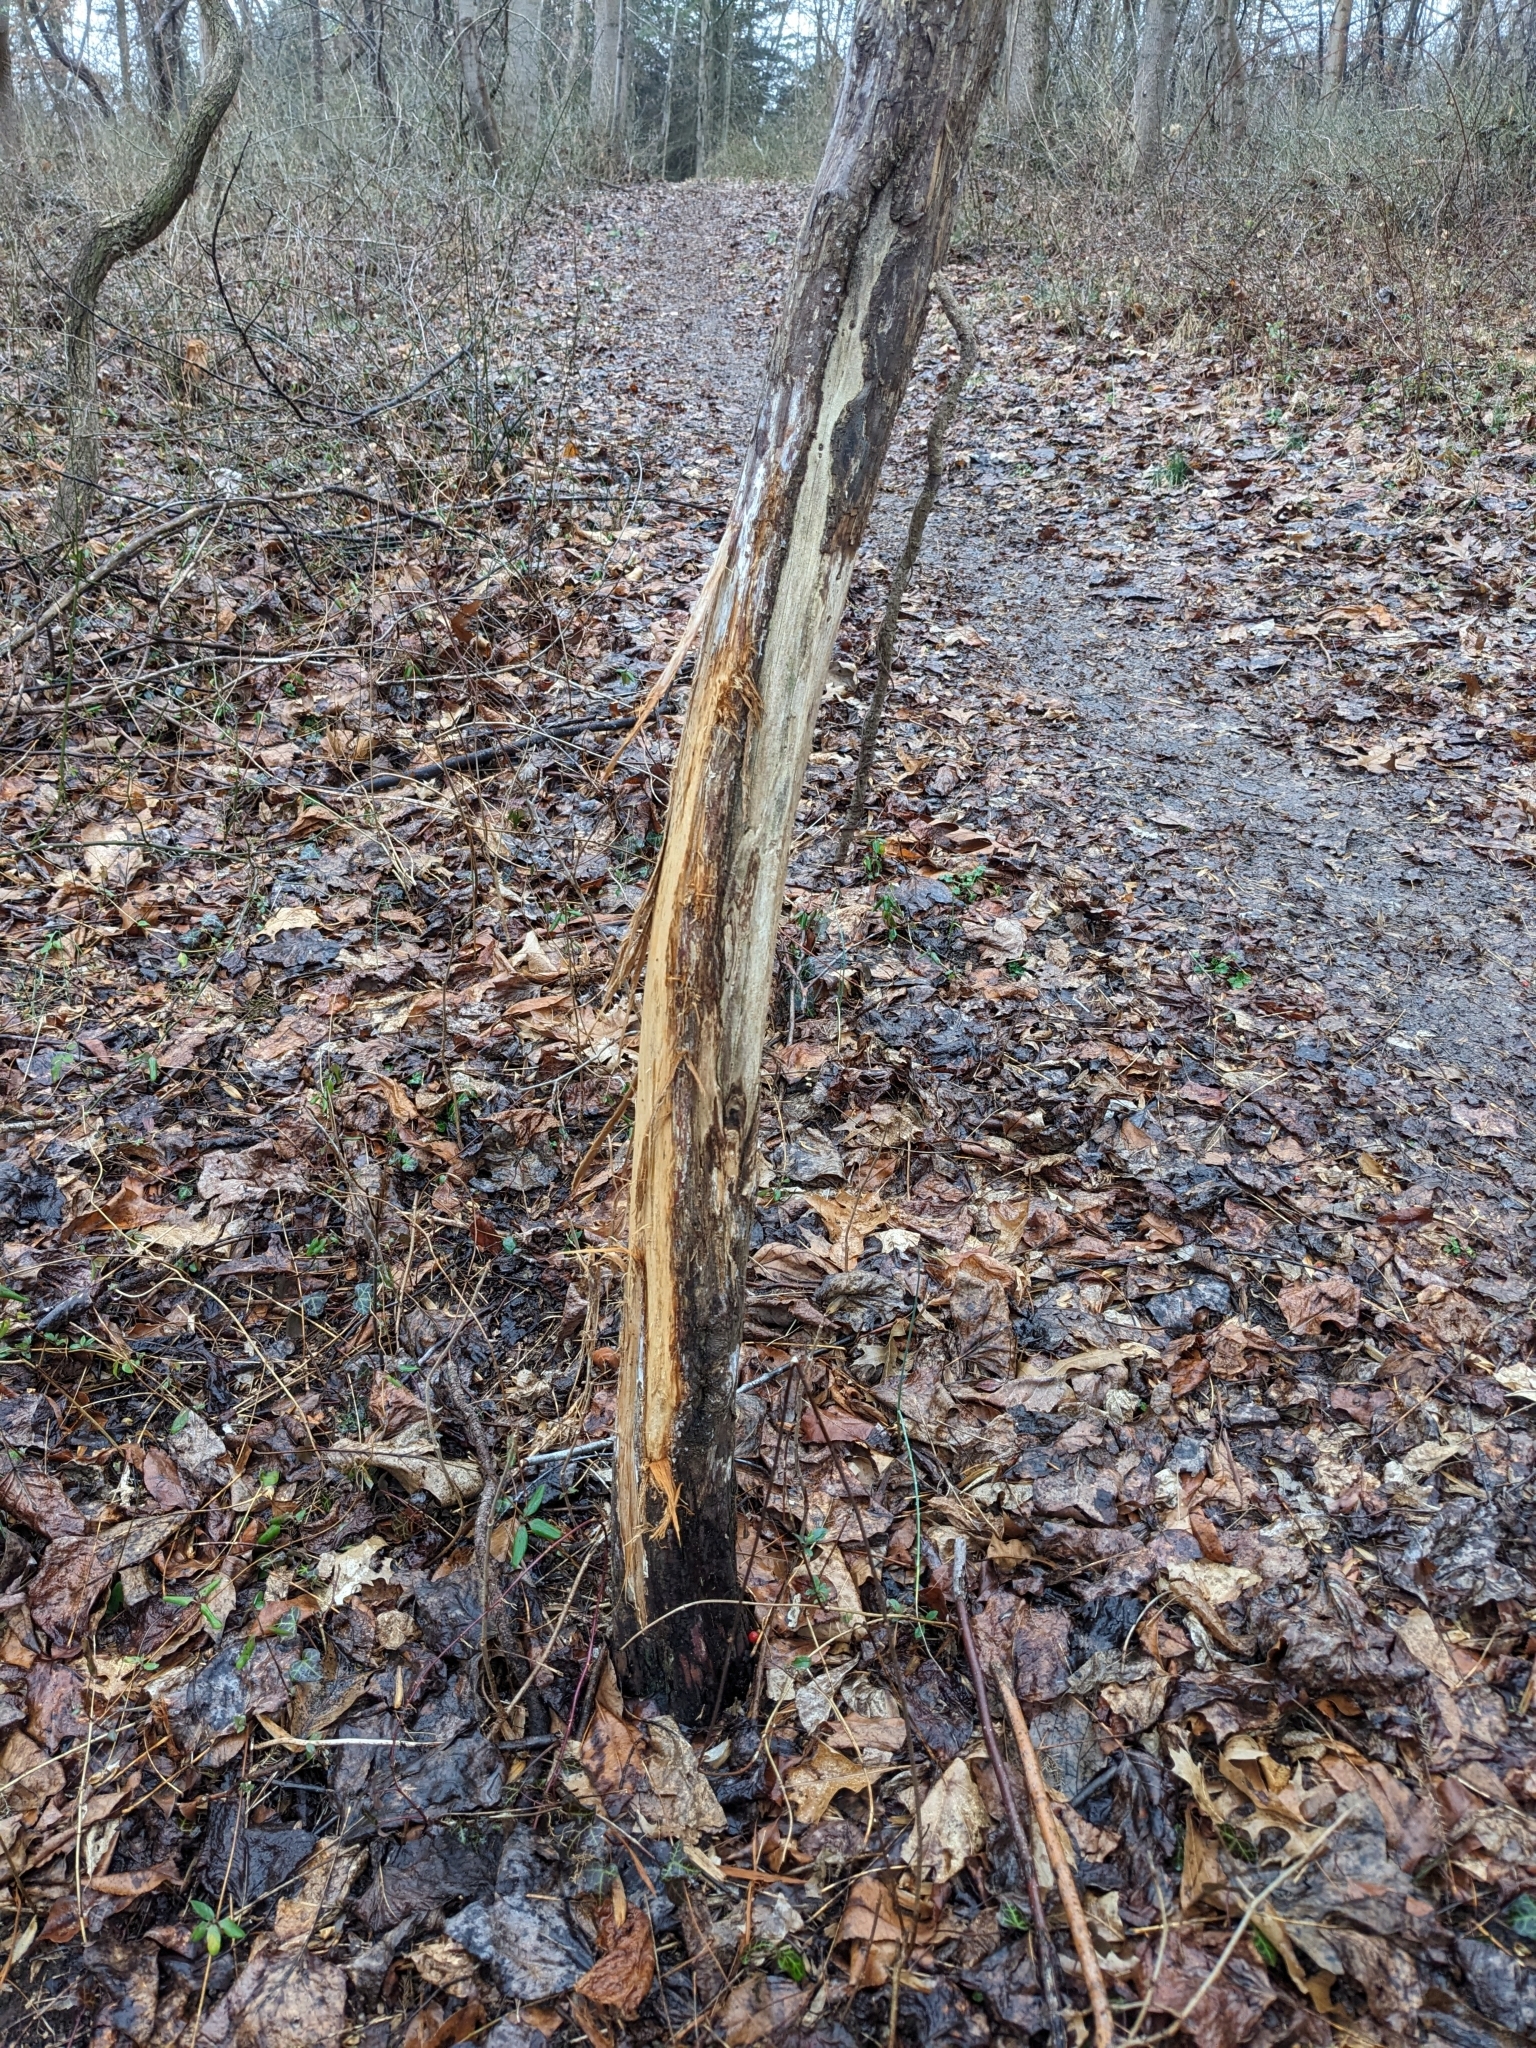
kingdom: Animalia
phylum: Chordata
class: Mammalia
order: Artiodactyla
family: Cervidae
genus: Odocoileus
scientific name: Odocoileus virginianus
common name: White-tailed deer
